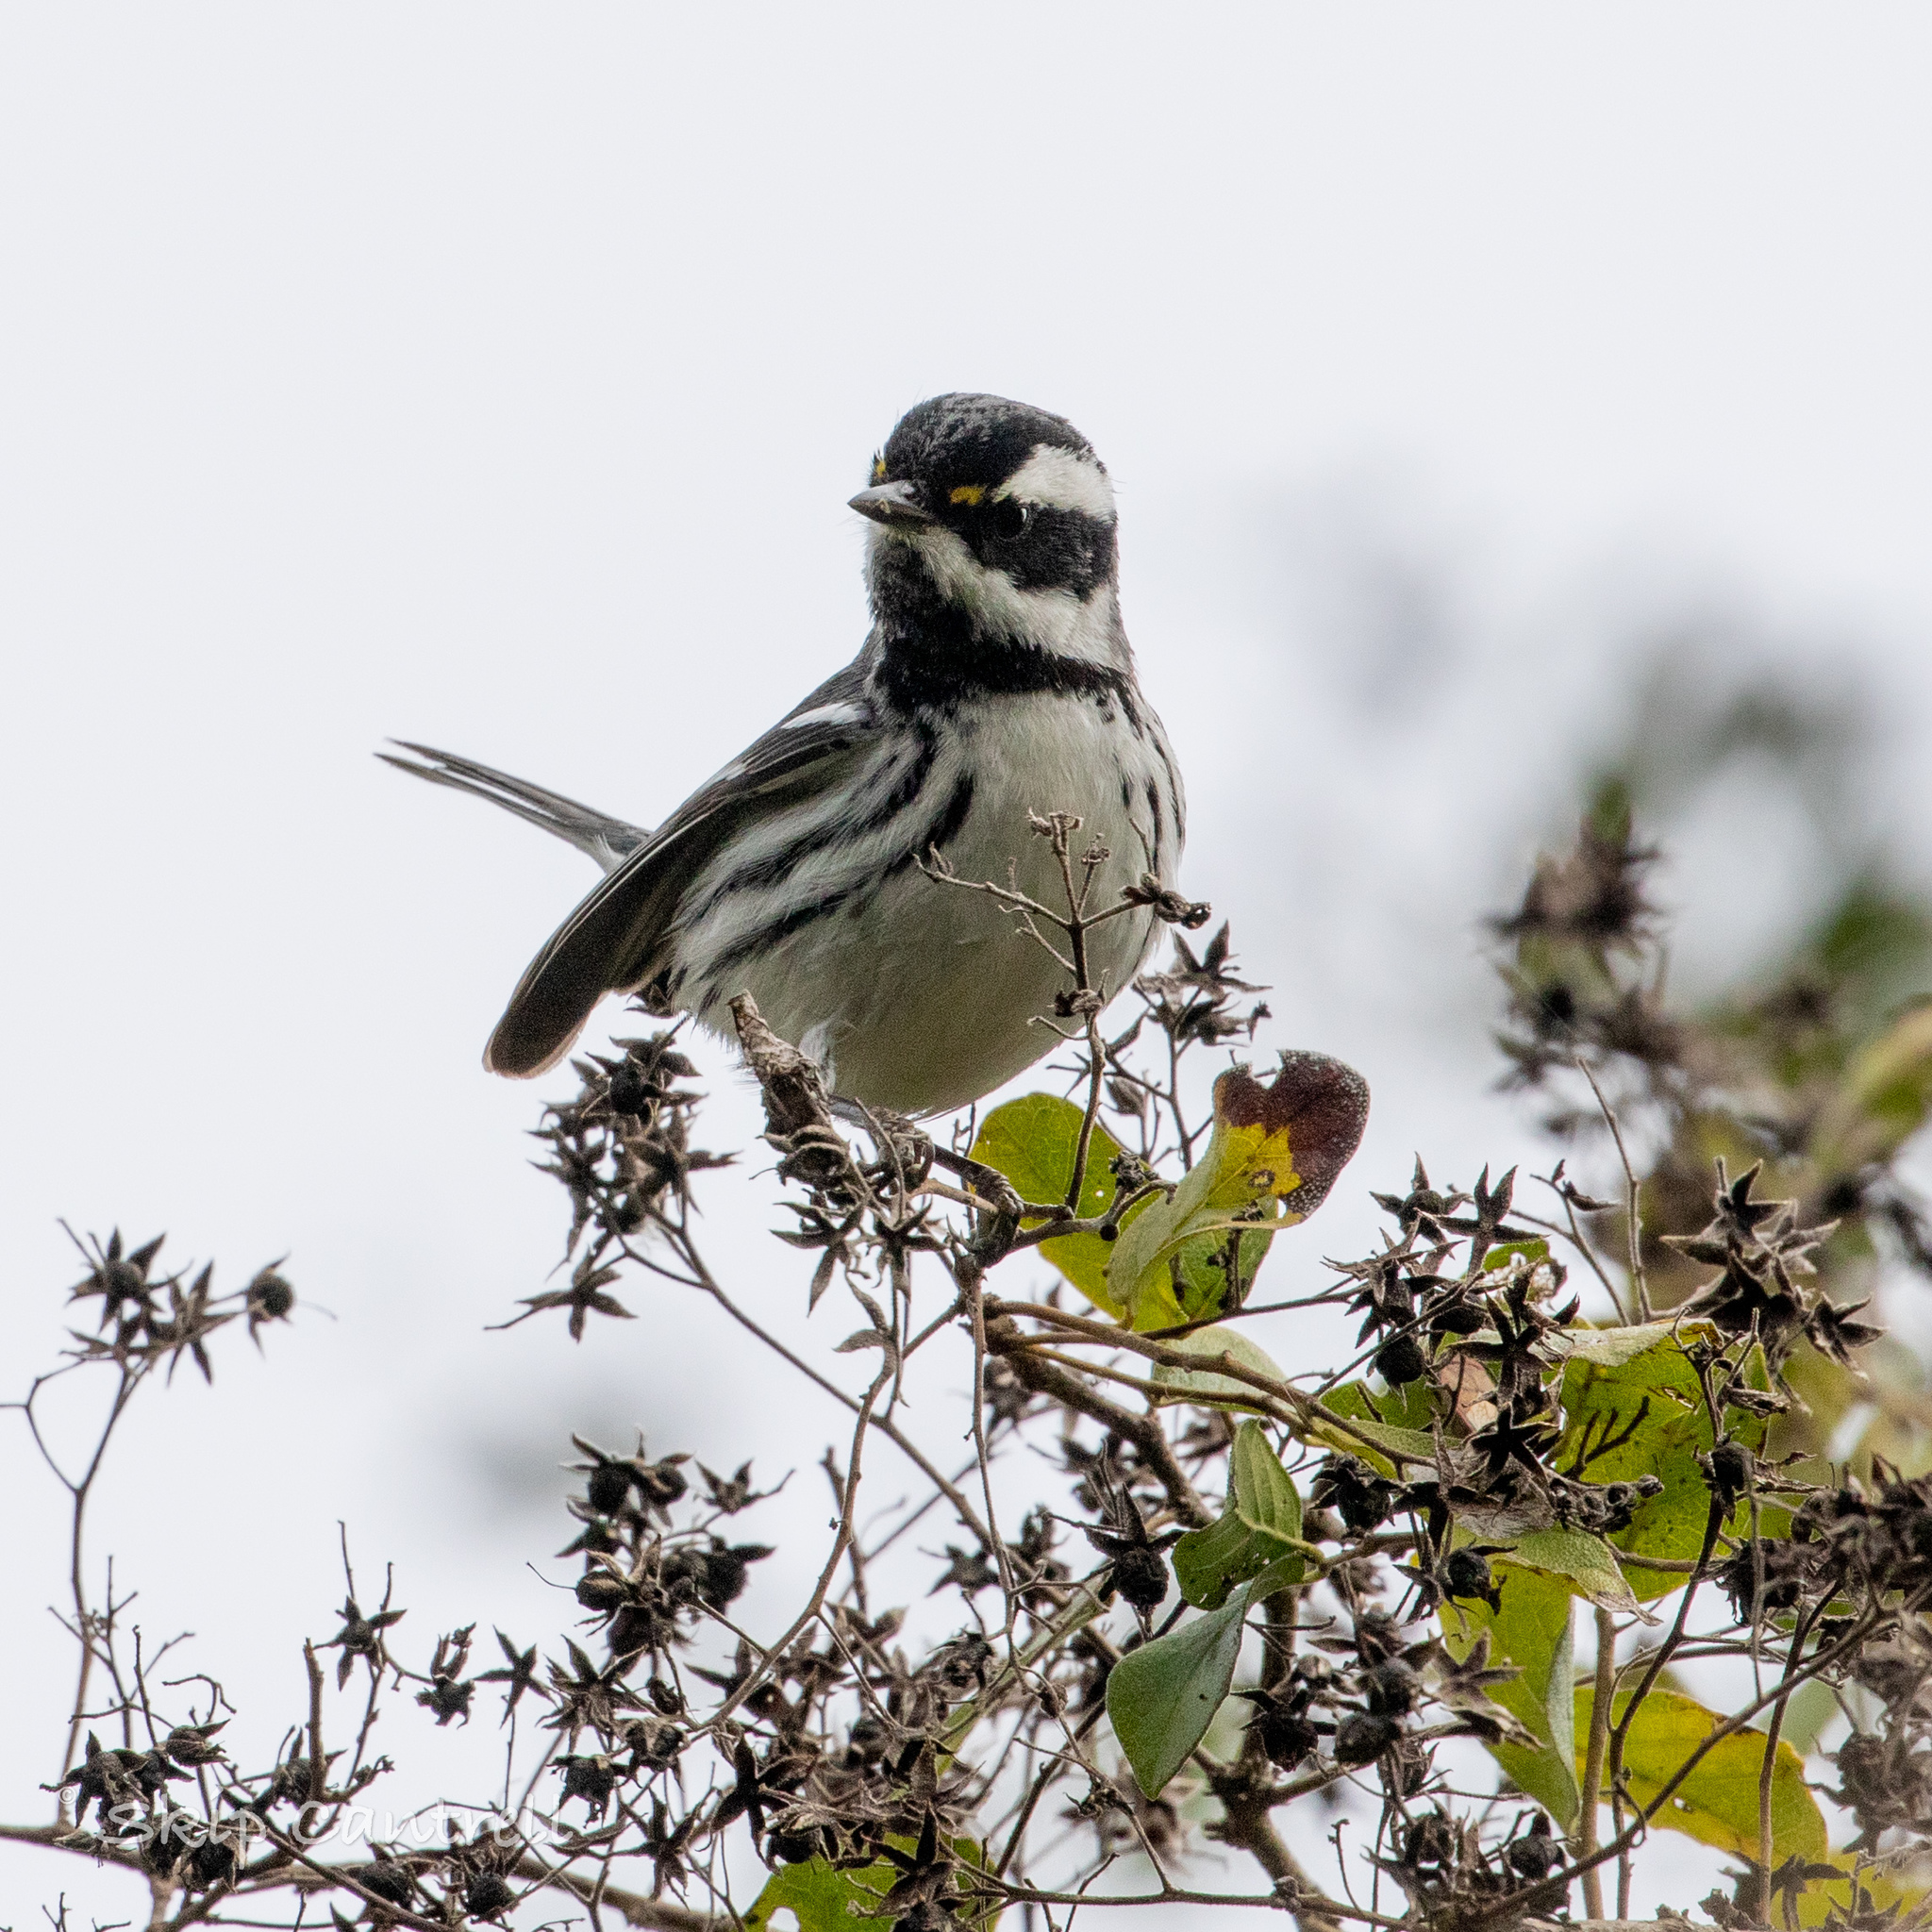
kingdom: Animalia
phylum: Chordata
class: Aves
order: Passeriformes
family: Parulidae
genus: Setophaga
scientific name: Setophaga nigrescens
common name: Black-throated gray warbler
